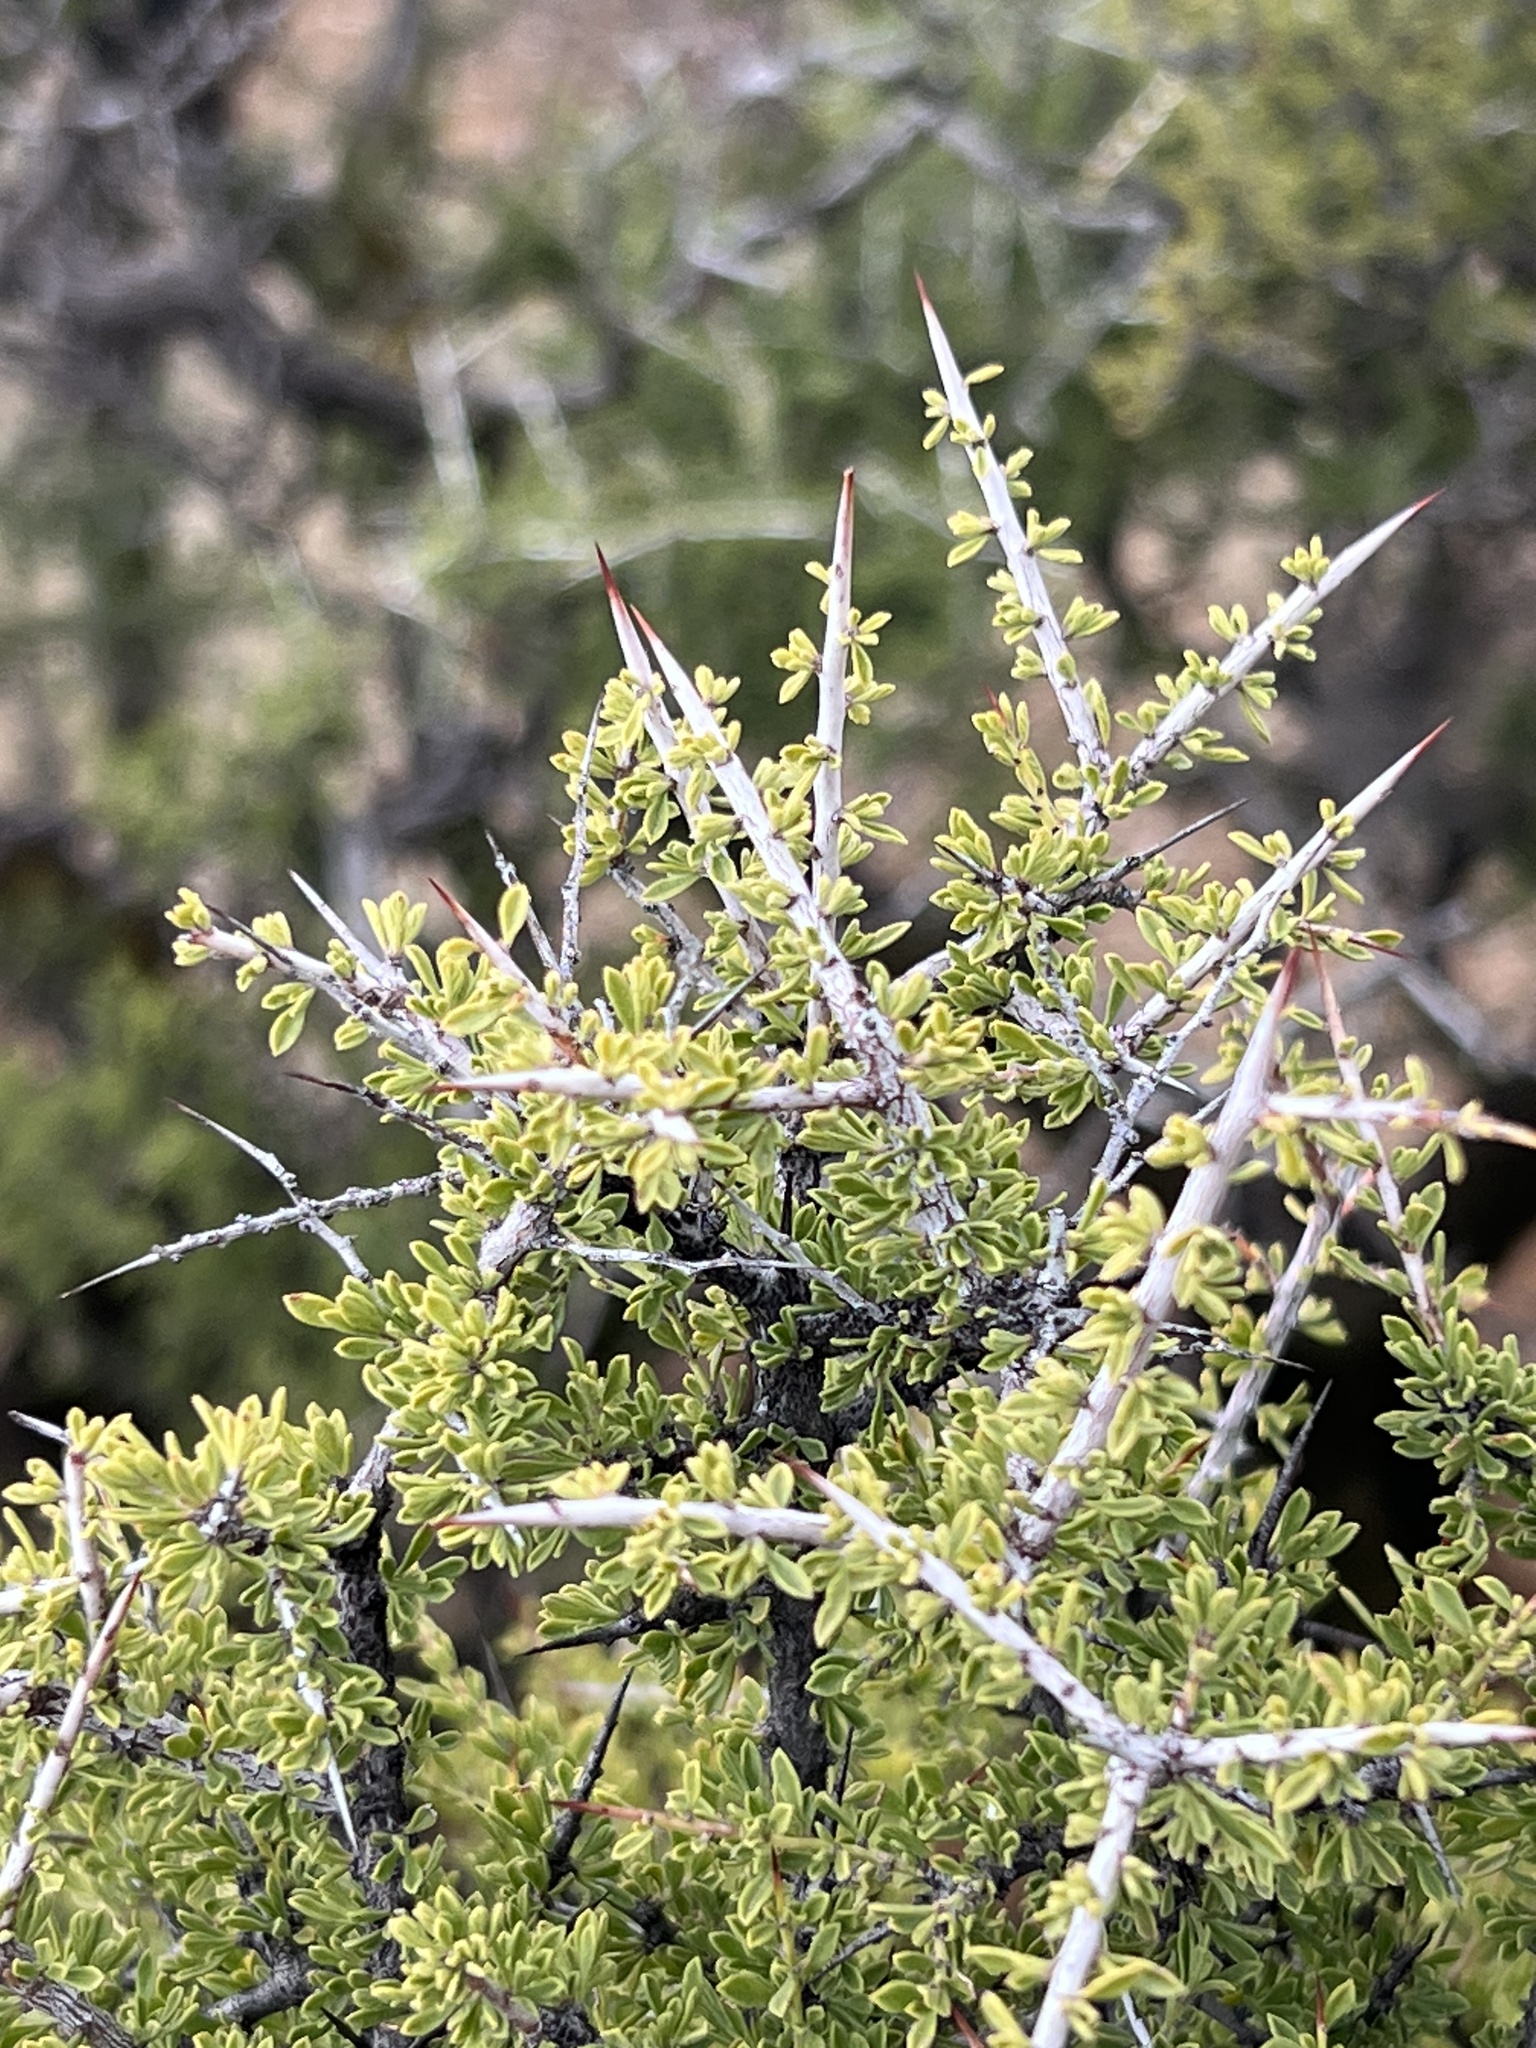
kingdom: Plantae
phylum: Tracheophyta
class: Magnoliopsida
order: Rosales
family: Rhamnaceae
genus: Condalia
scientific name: Condalia warnockii
